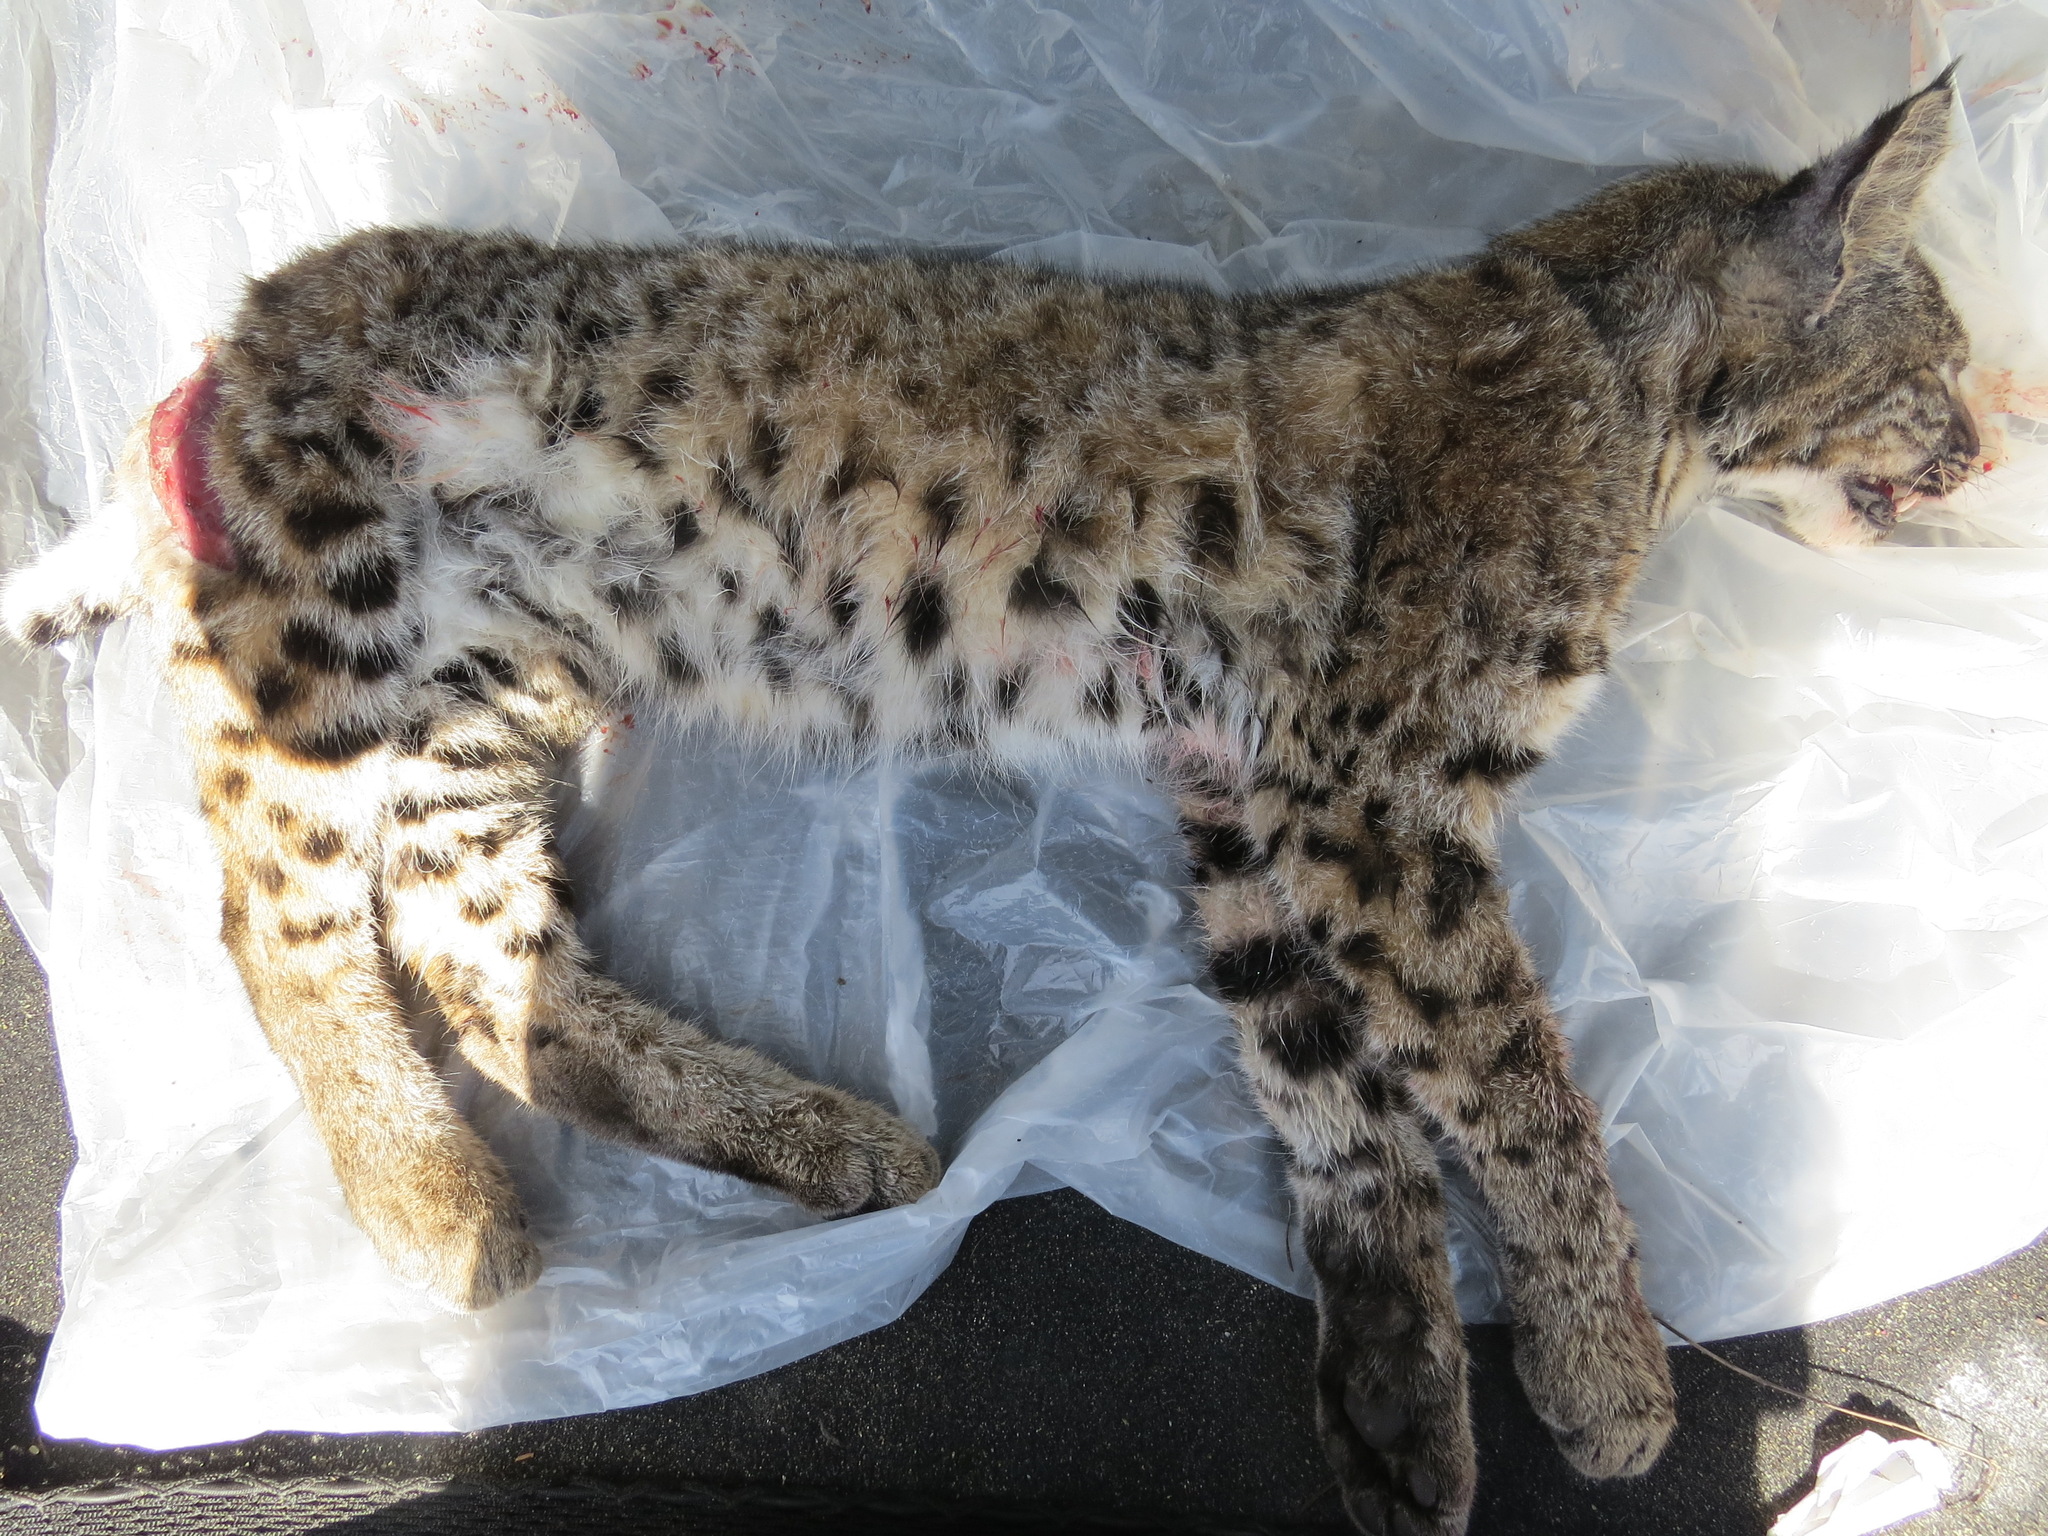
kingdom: Animalia
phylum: Chordata
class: Mammalia
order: Carnivora
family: Felidae
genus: Lynx
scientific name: Lynx rufus
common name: Bobcat
